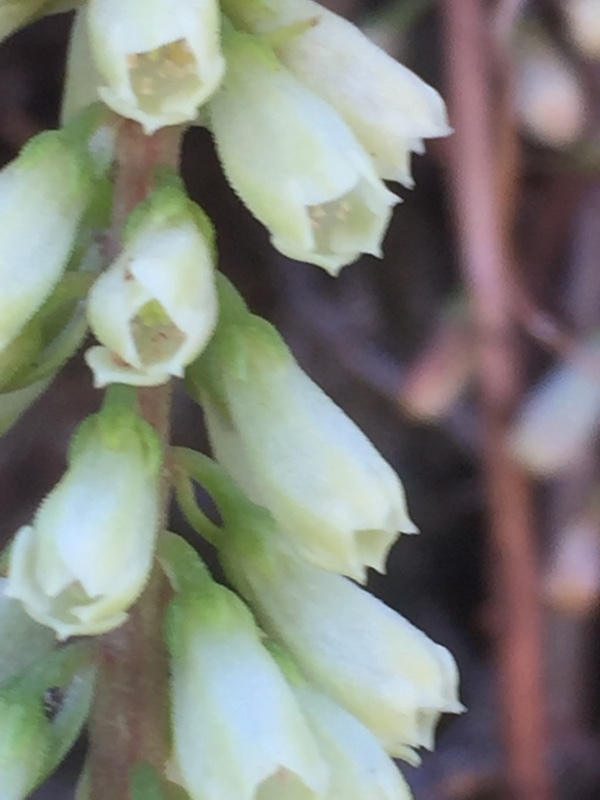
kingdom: Plantae
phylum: Tracheophyta
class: Magnoliopsida
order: Saxifragales
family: Crassulaceae
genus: Umbilicus
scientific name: Umbilicus rupestris
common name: Navelwort
